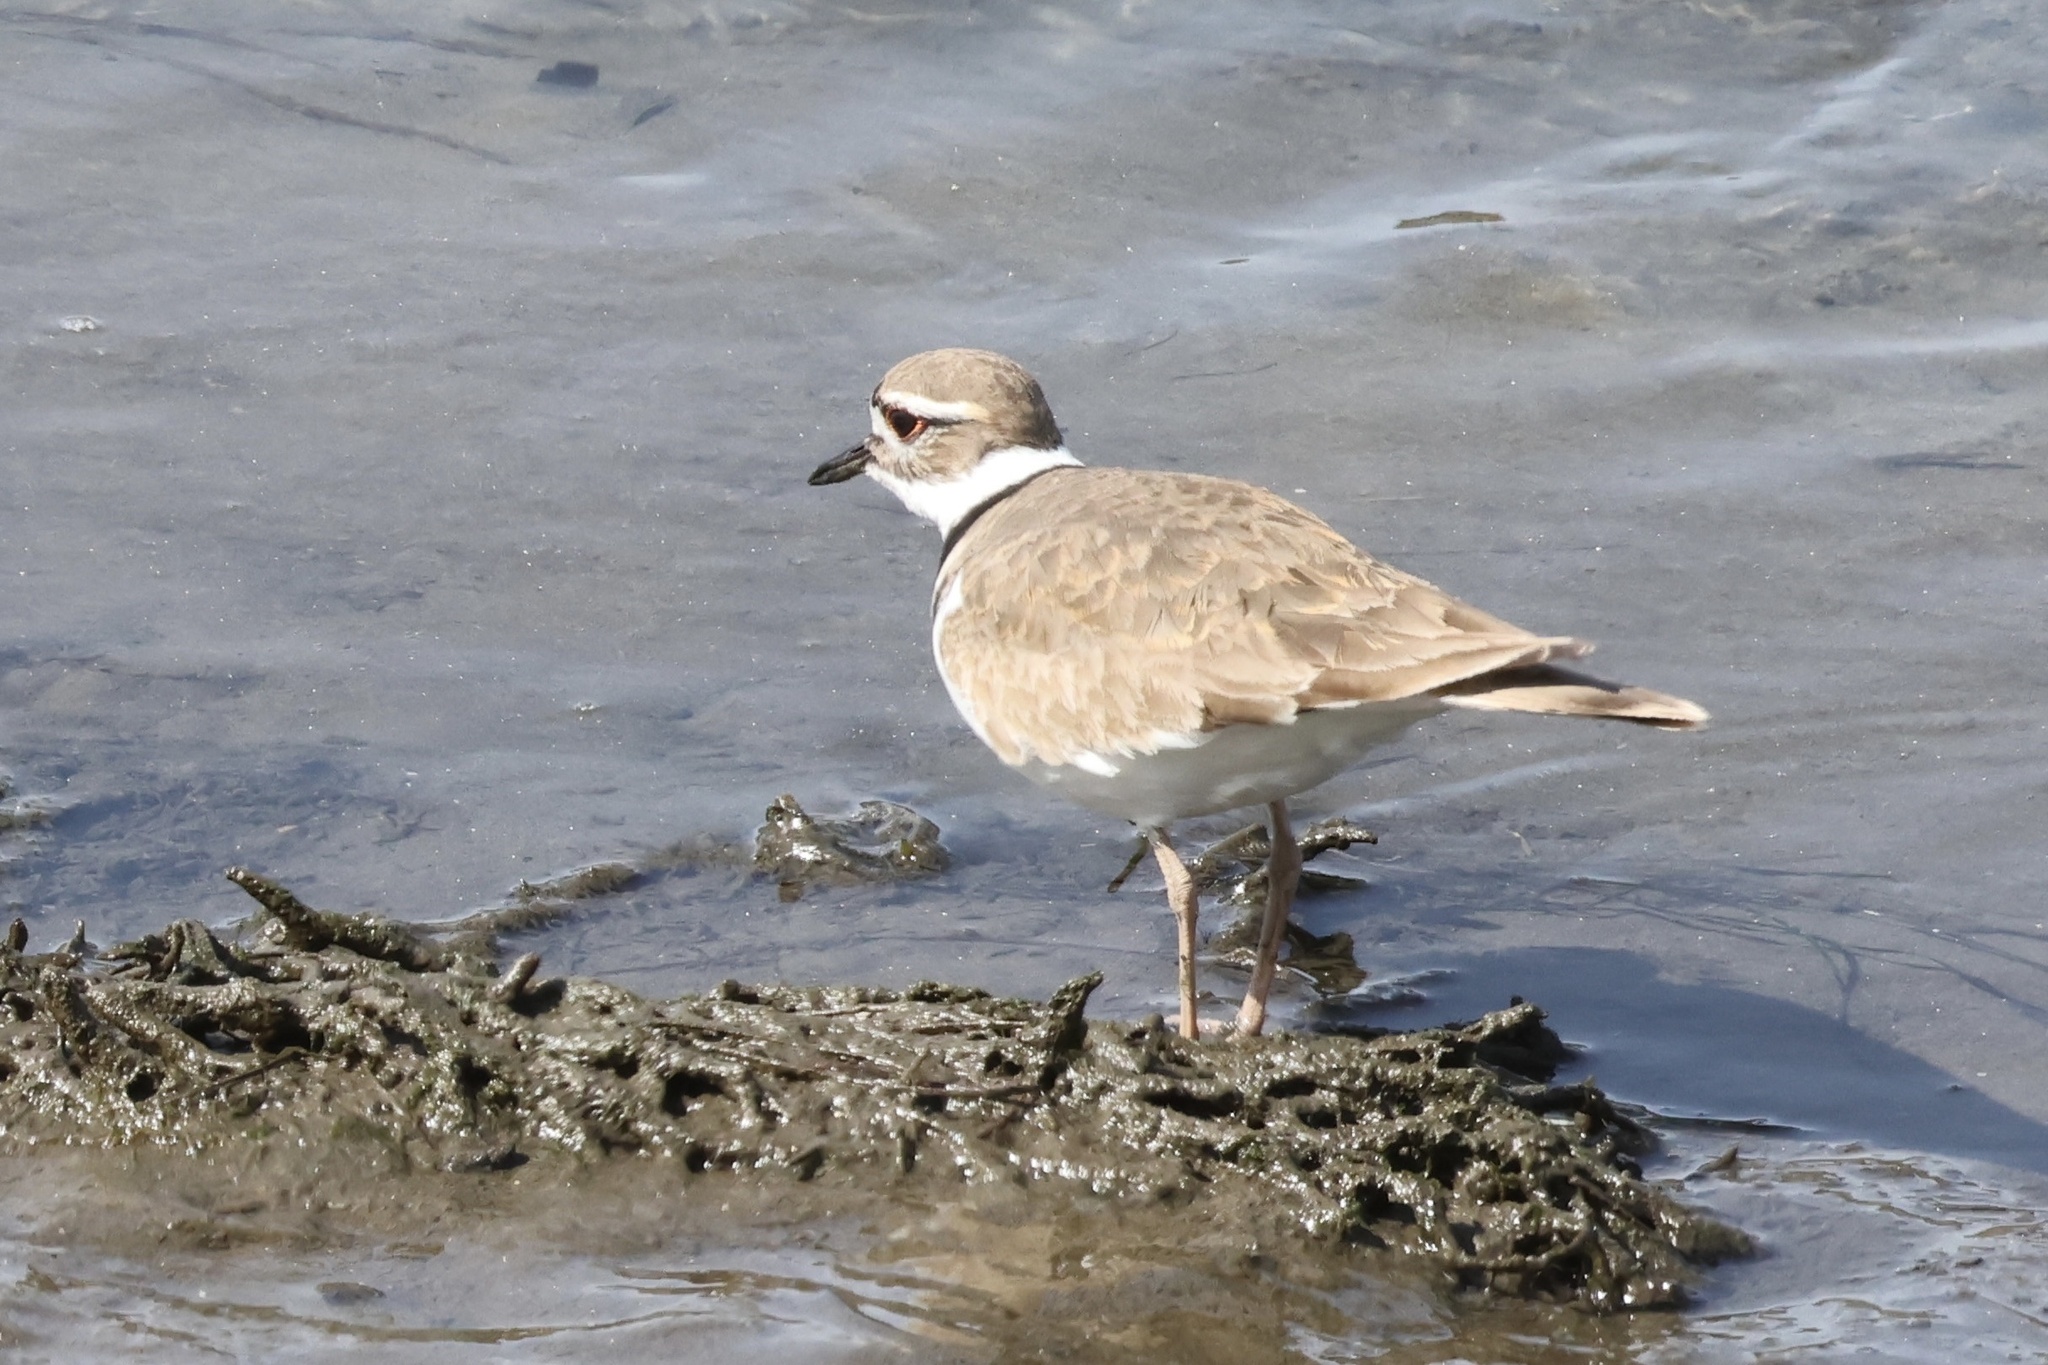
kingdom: Animalia
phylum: Chordata
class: Aves
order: Charadriiformes
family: Charadriidae
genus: Charadrius
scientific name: Charadrius vociferus
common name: Killdeer
